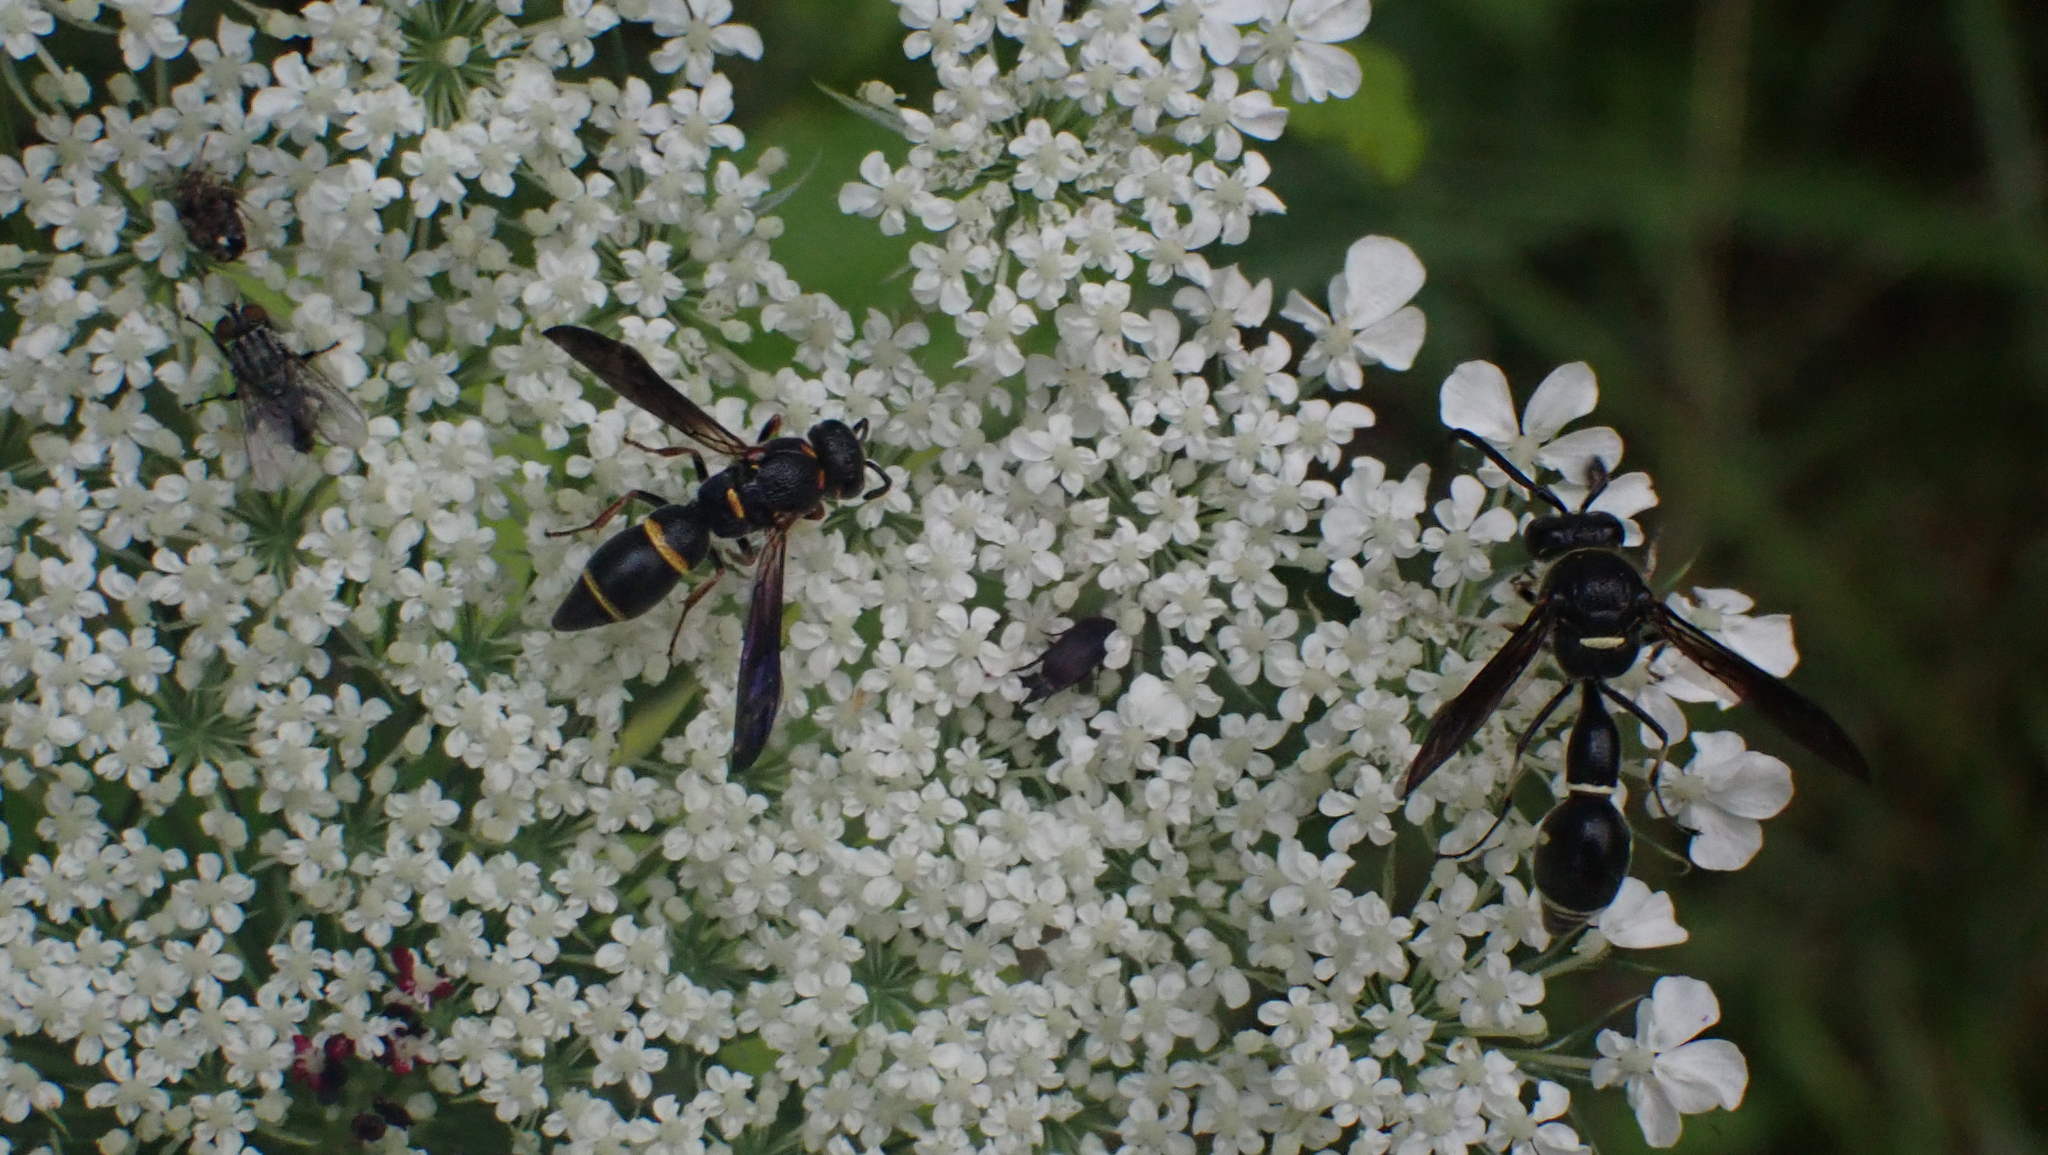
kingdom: Animalia
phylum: Arthropoda
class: Insecta
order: Hymenoptera
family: Vespidae
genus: Eumenes
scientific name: Eumenes fraternus
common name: Fraternal potter wasp
